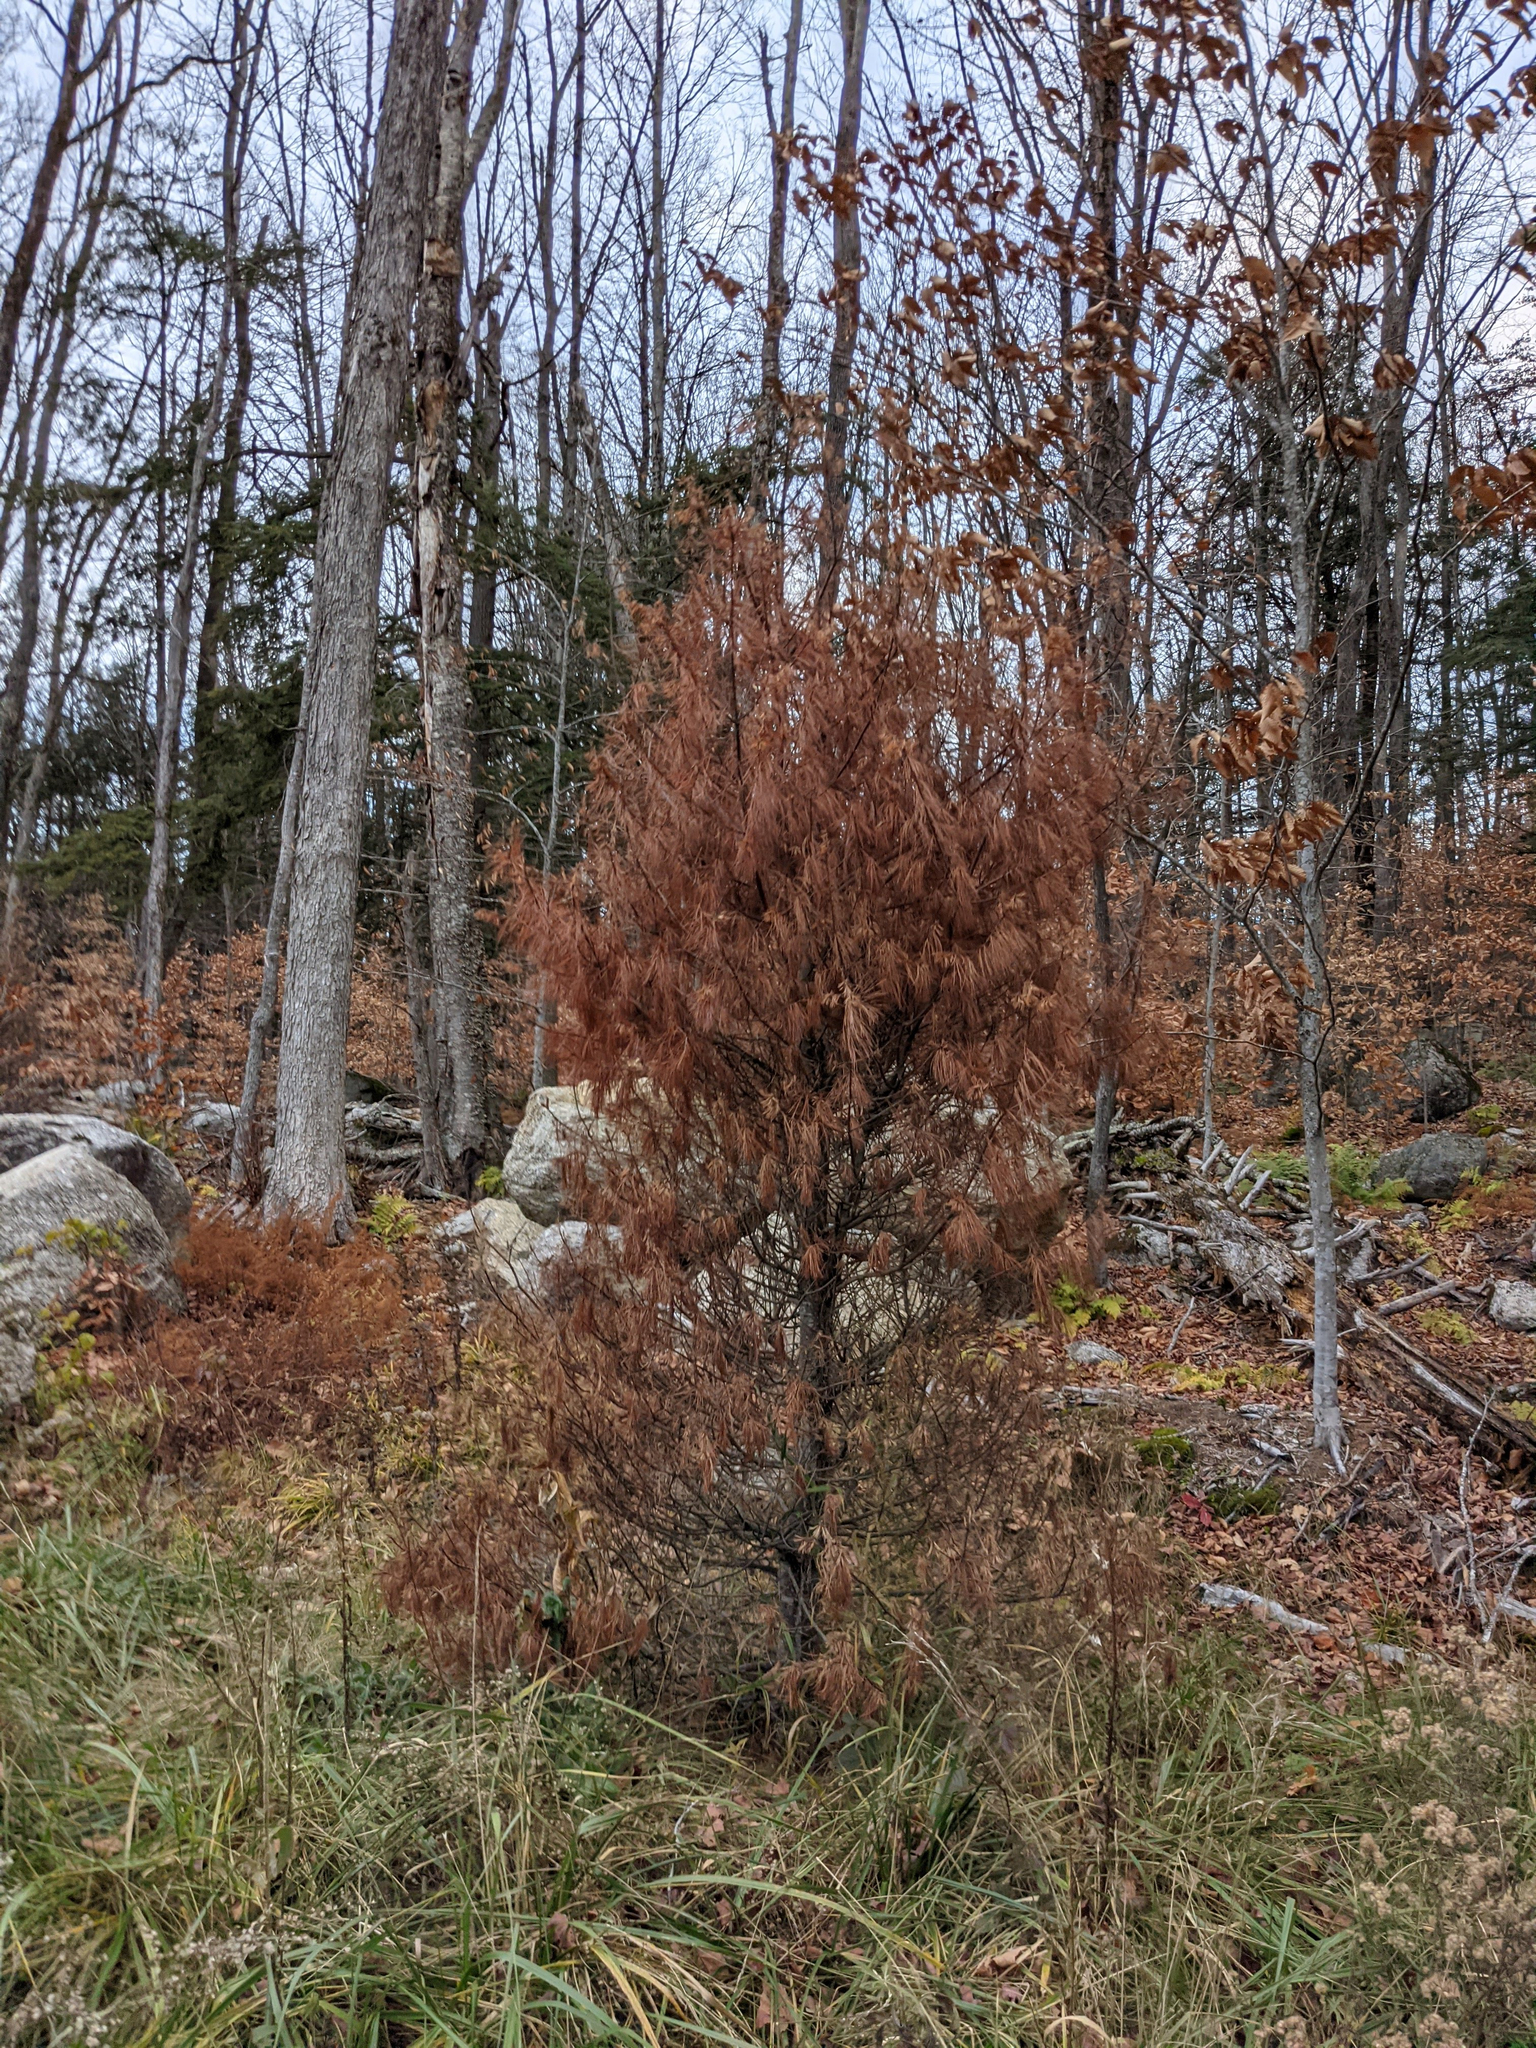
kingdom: Plantae
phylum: Tracheophyta
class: Pinopsida
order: Pinales
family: Pinaceae
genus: Pinus
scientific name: Pinus strobus
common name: Weymouth pine
